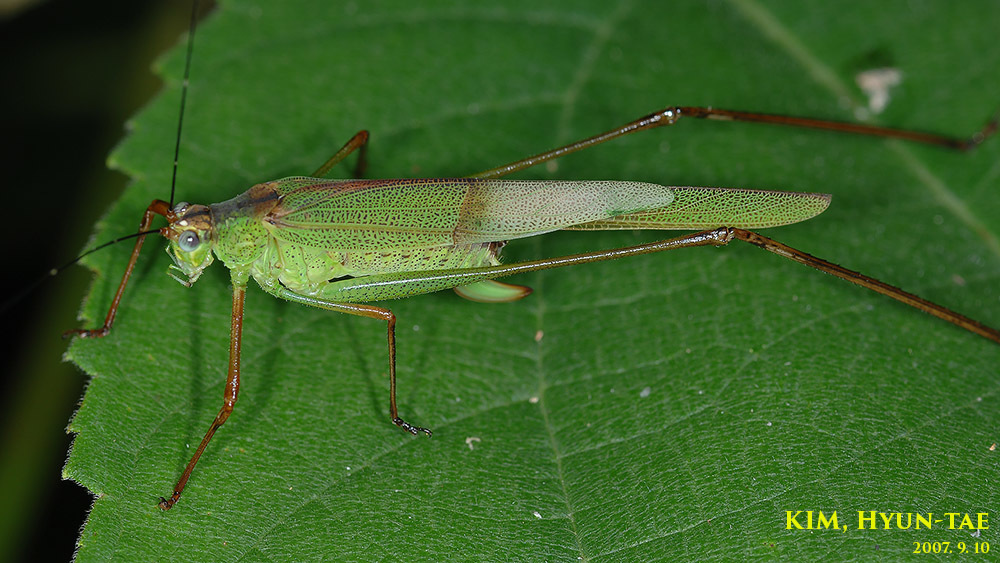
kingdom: Animalia
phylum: Arthropoda
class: Insecta
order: Orthoptera
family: Tettigoniidae
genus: Phaneroptera
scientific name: Phaneroptera nigroantennata
